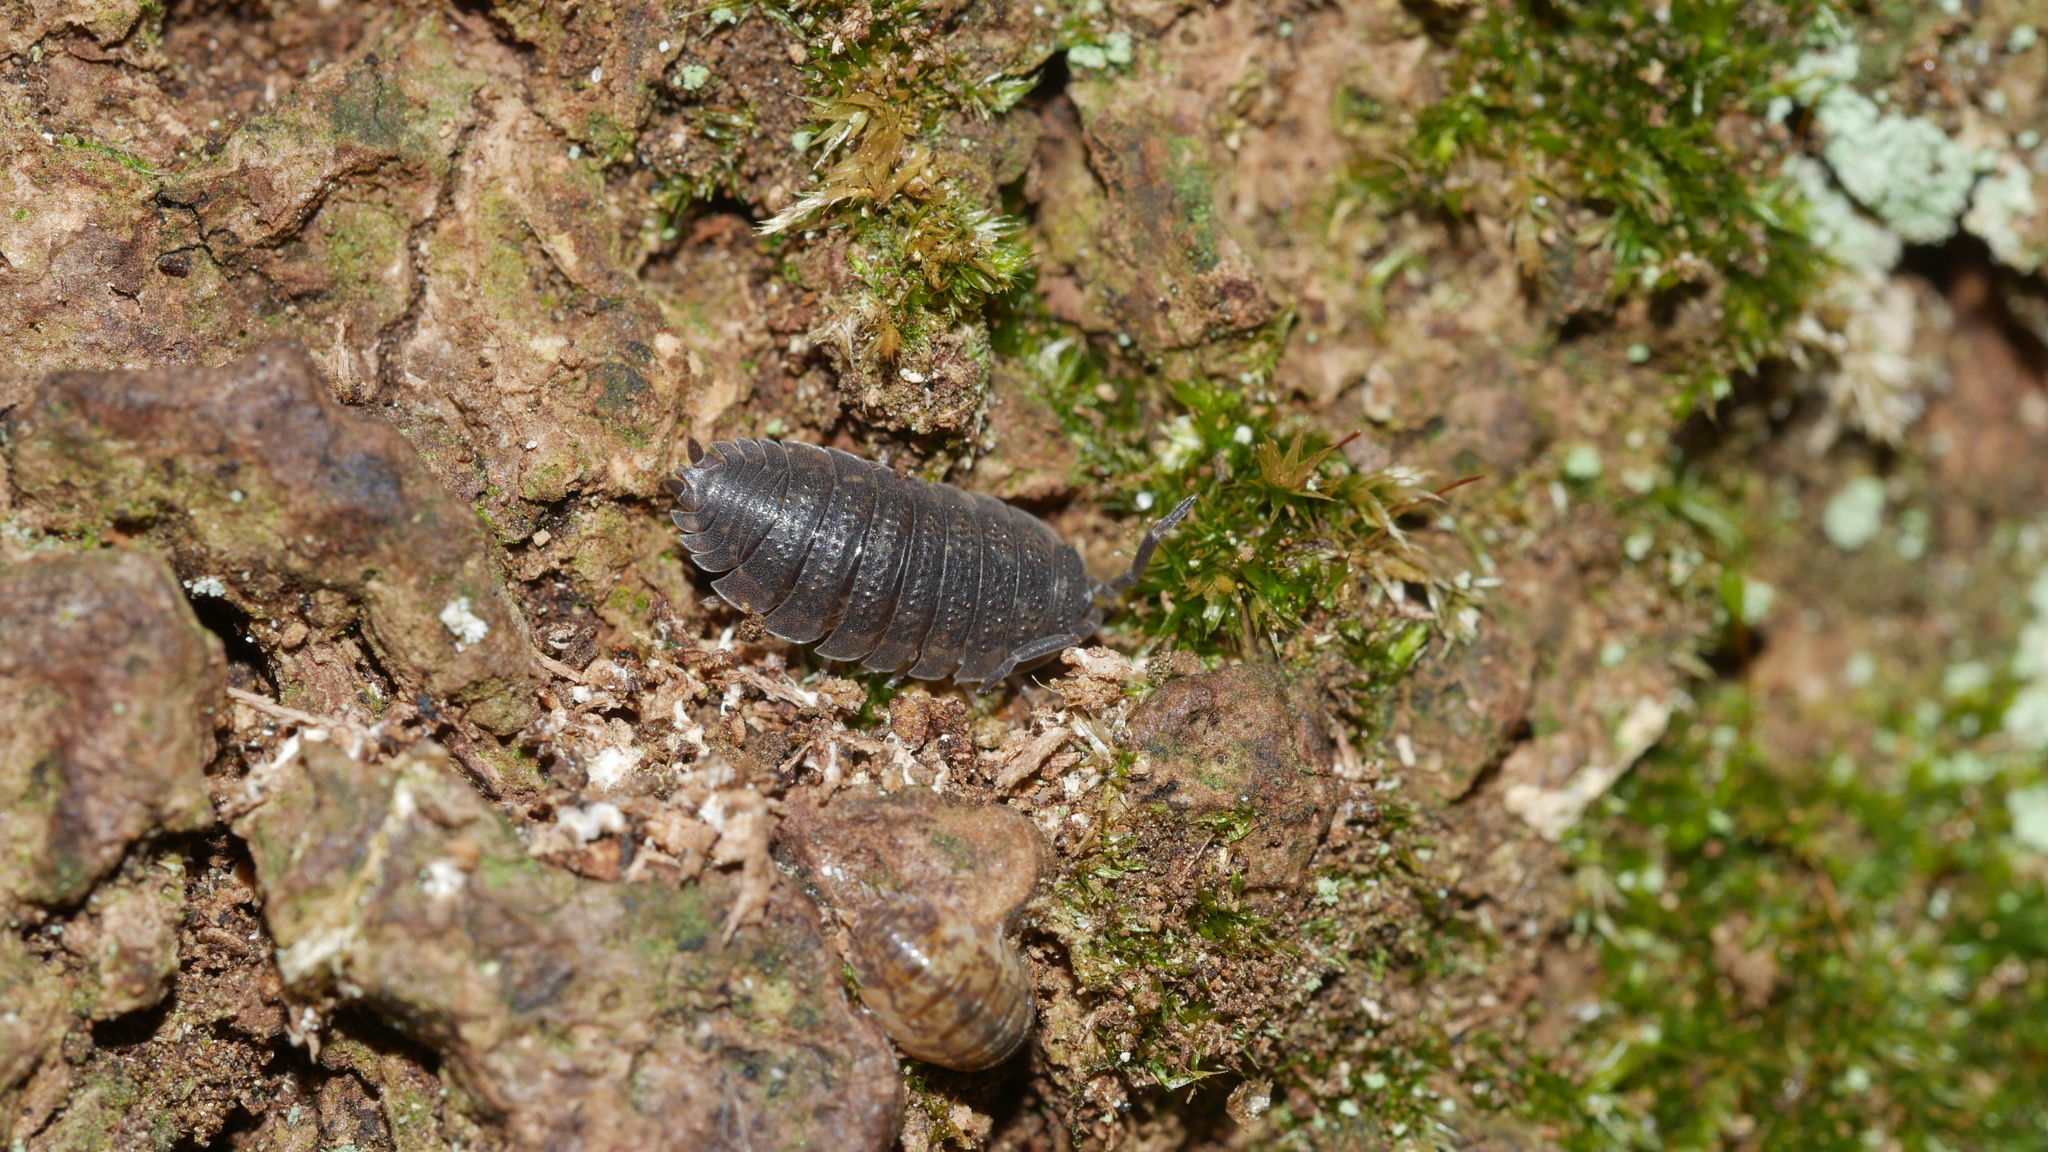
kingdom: Animalia
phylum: Arthropoda
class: Malacostraca
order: Isopoda
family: Porcellionidae
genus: Porcellio
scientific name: Porcellio scaber
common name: Common rough woodlouse
